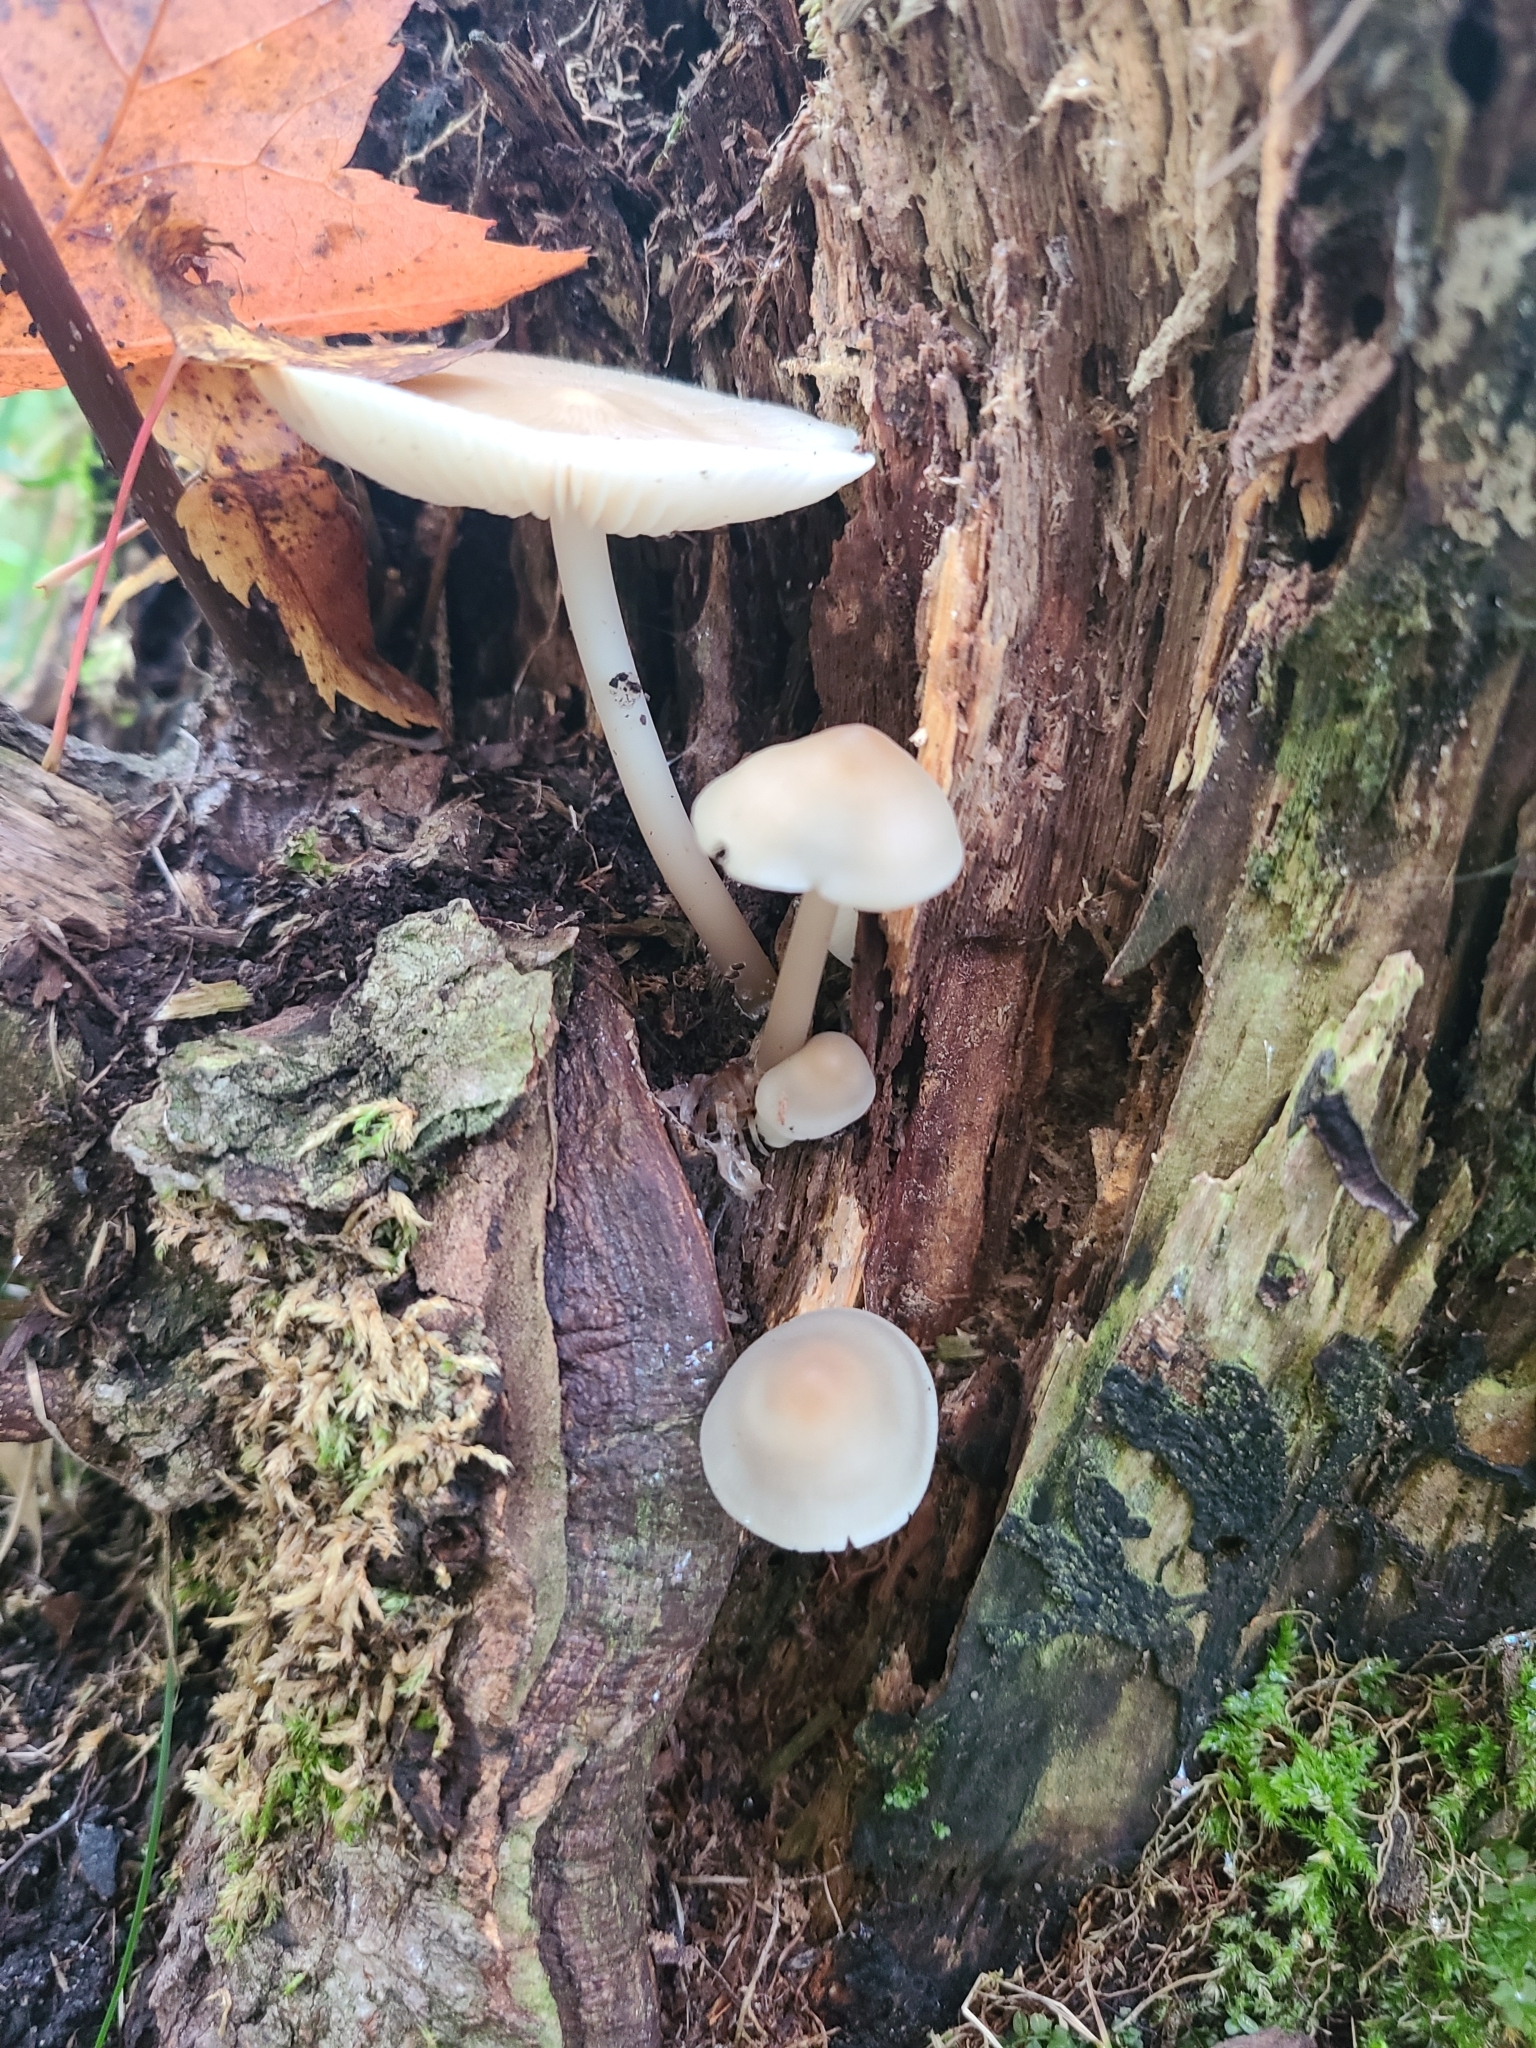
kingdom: Fungi
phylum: Basidiomycota
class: Agaricomycetes
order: Agaricales
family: Mycenaceae
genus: Mycena
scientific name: Mycena galericulata
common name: Bonnet mycena
